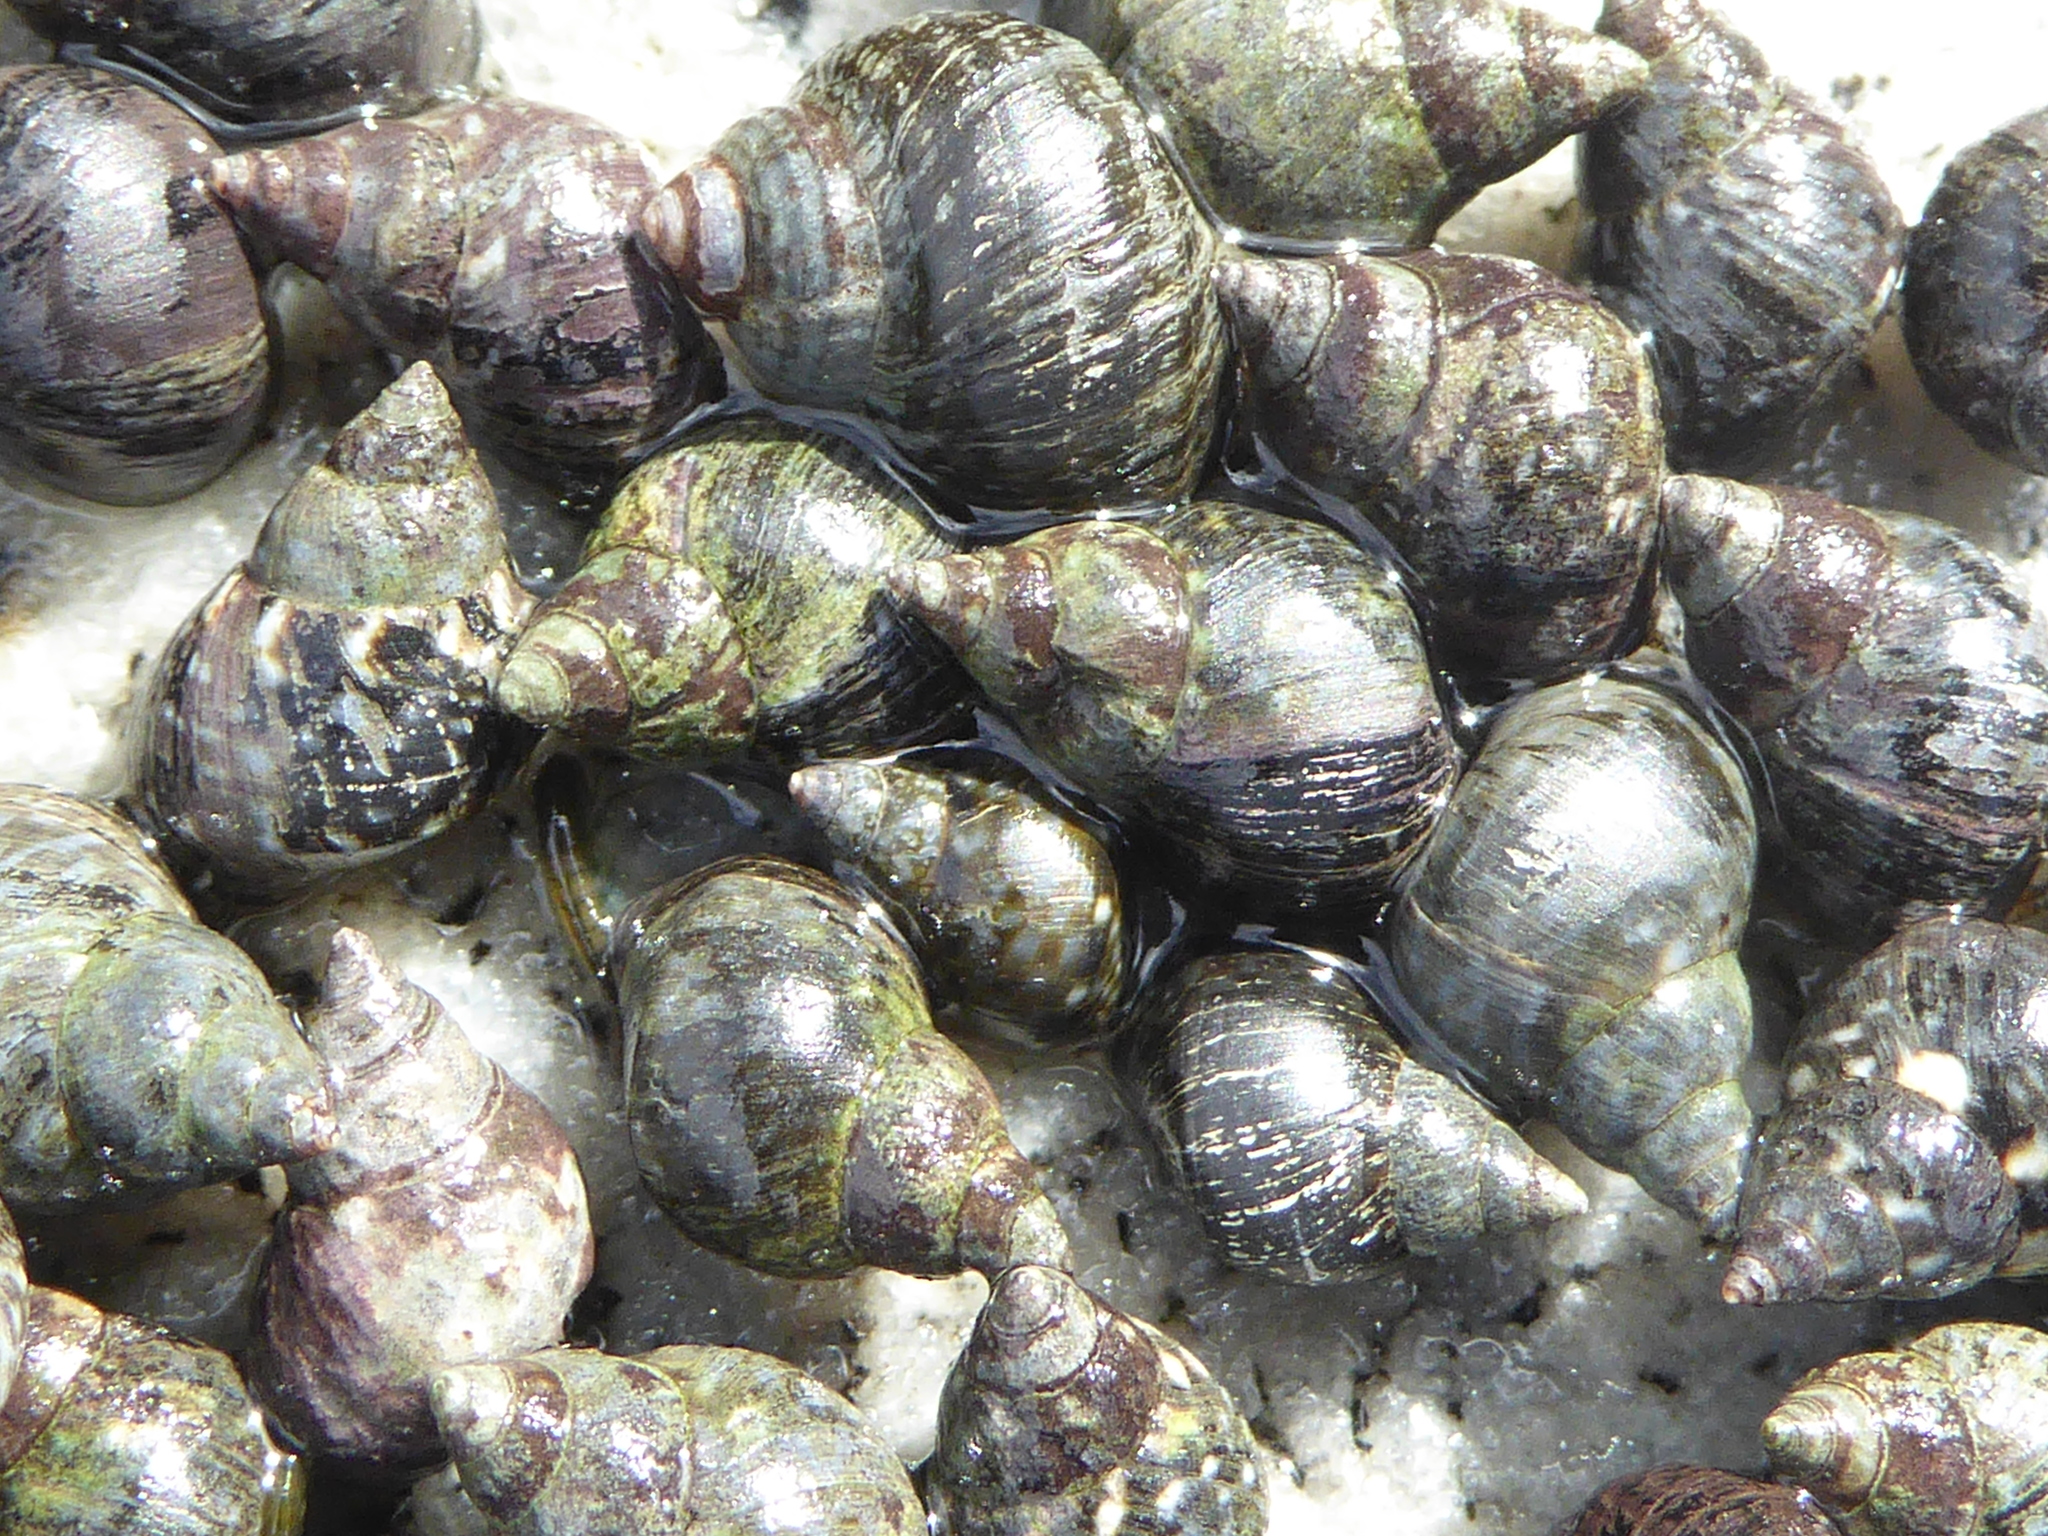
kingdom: Animalia
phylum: Mollusca
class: Gastropoda
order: Littorinimorpha
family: Littorinidae
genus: Littorina
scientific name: Littorina scutulata
